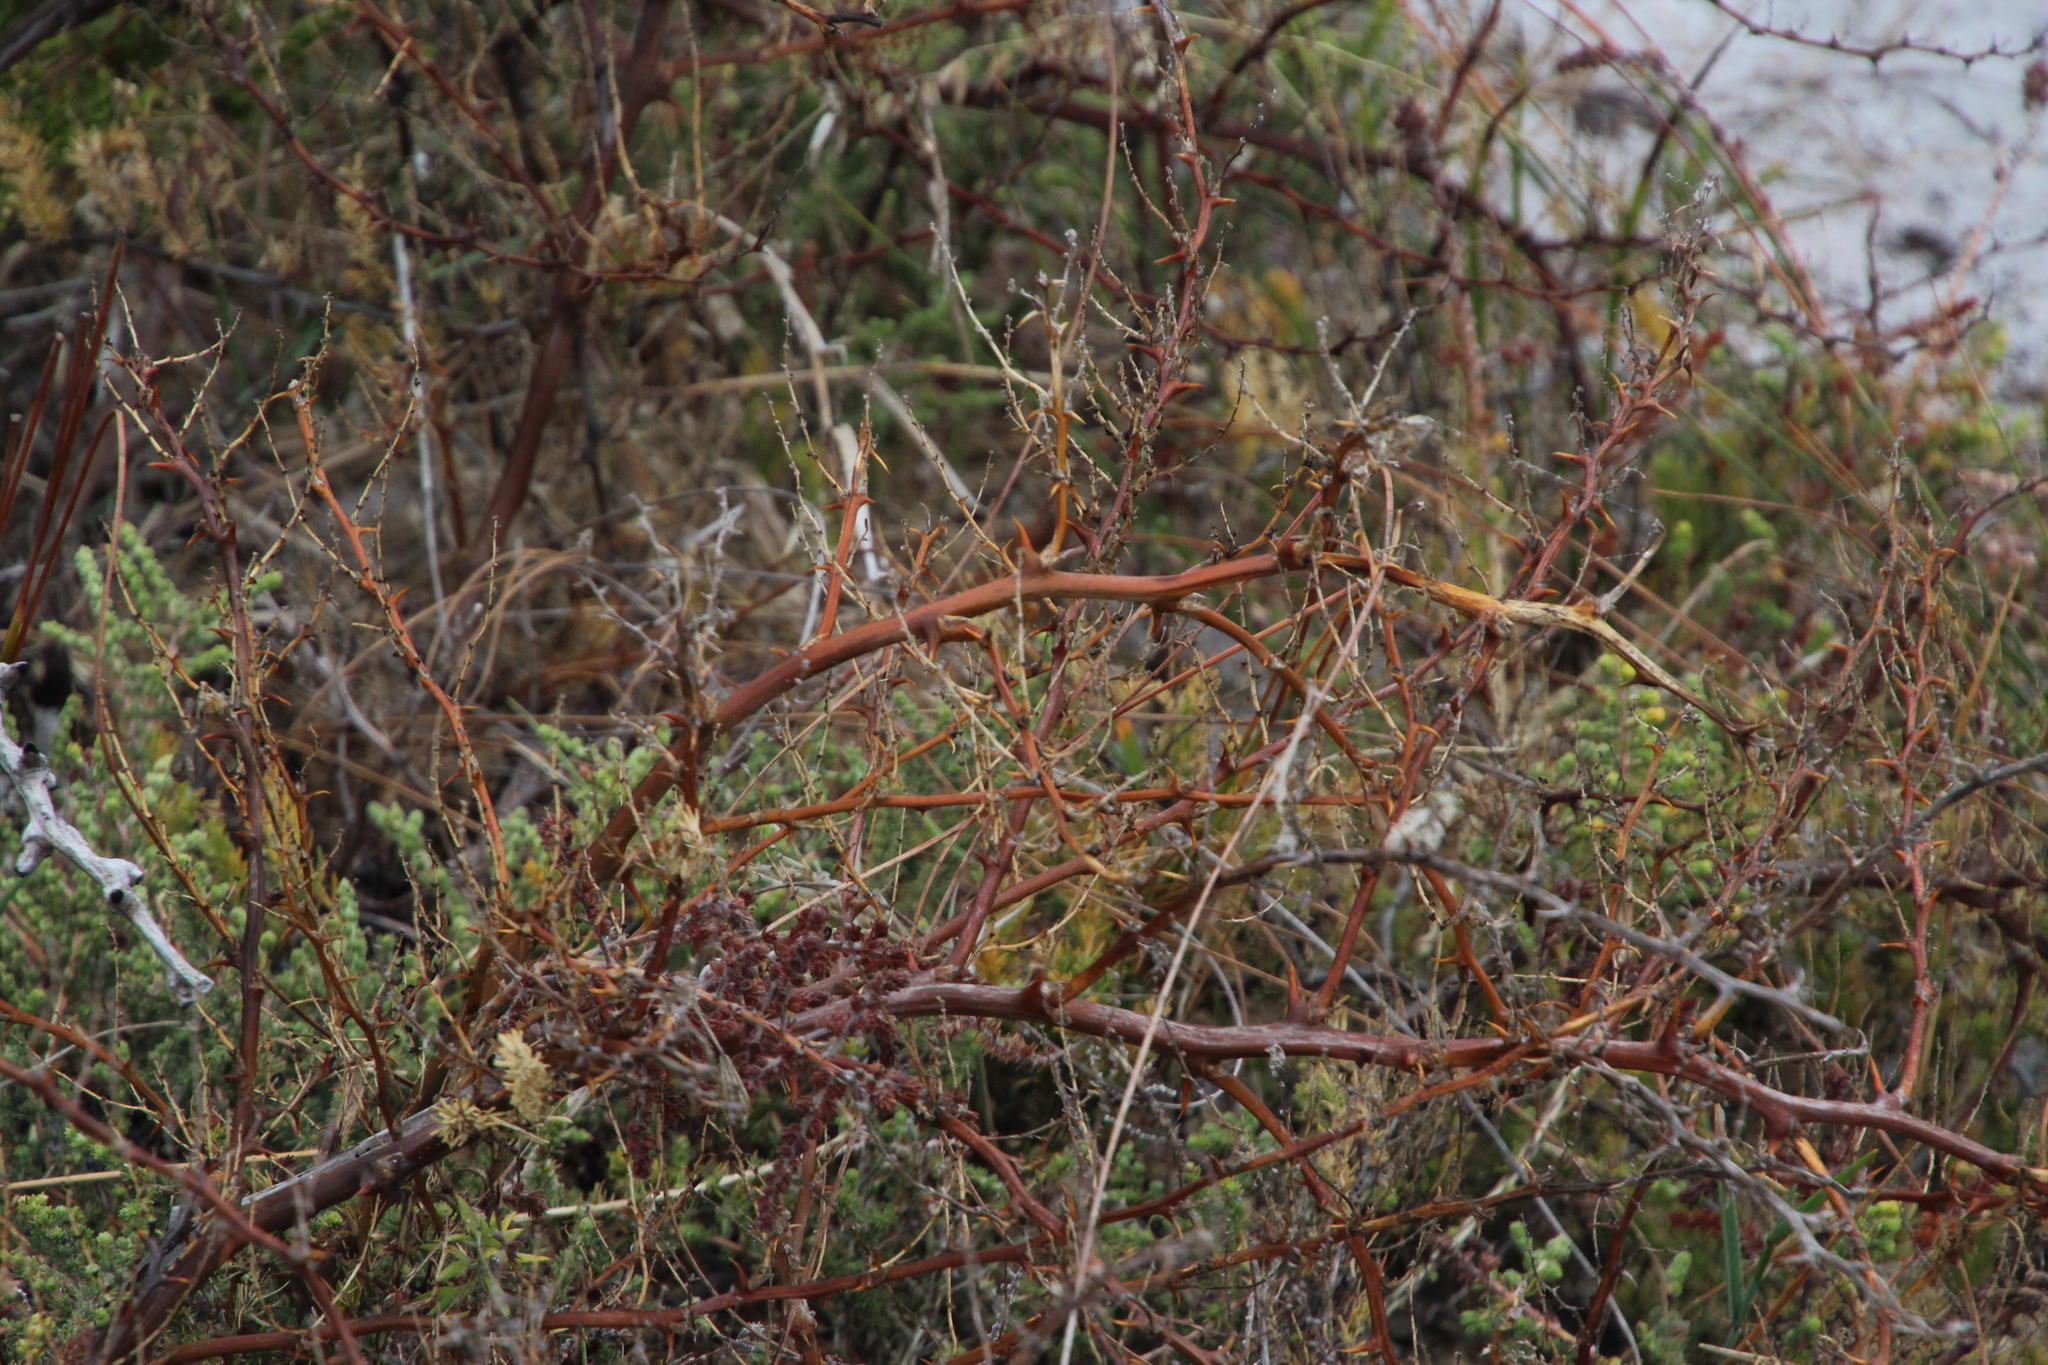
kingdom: Plantae
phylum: Tracheophyta
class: Liliopsida
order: Asparagales
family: Asparagaceae
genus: Asparagus
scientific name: Asparagus rubicundus
